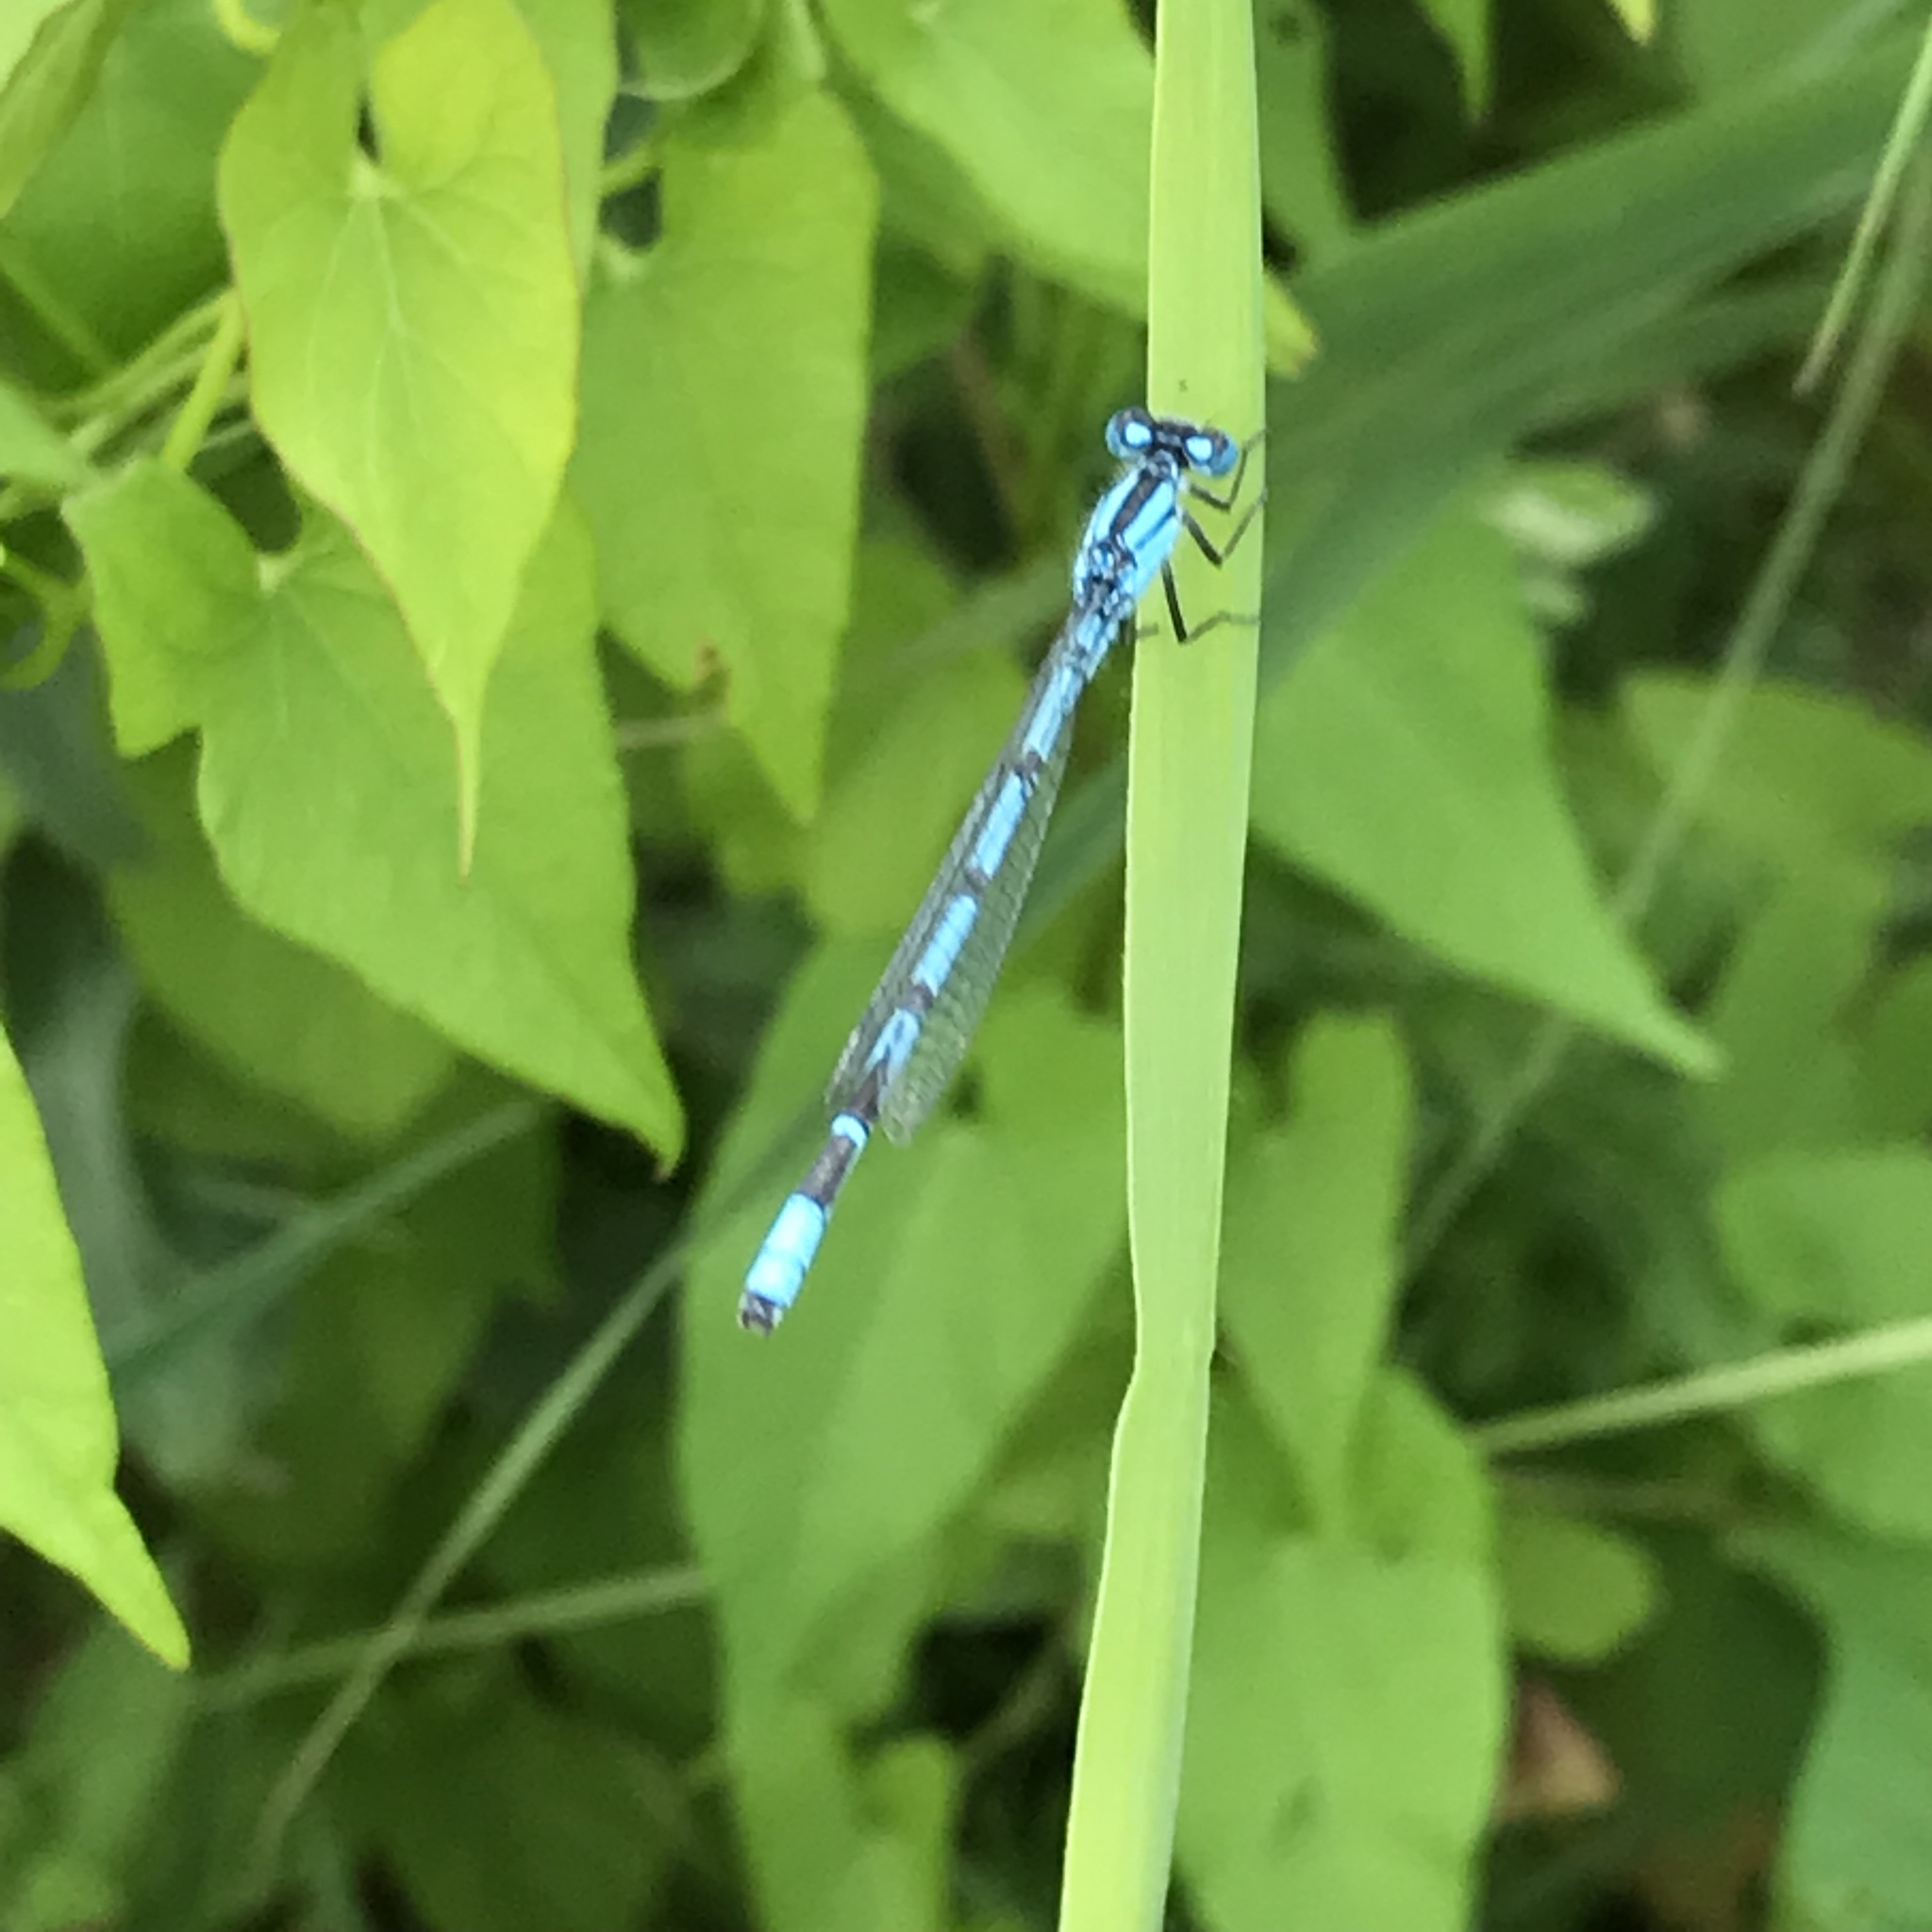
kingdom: Animalia
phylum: Arthropoda
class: Insecta
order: Odonata
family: Coenagrionidae
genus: Enallagma
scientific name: Enallagma cyathigerum
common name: Common blue damselfly
